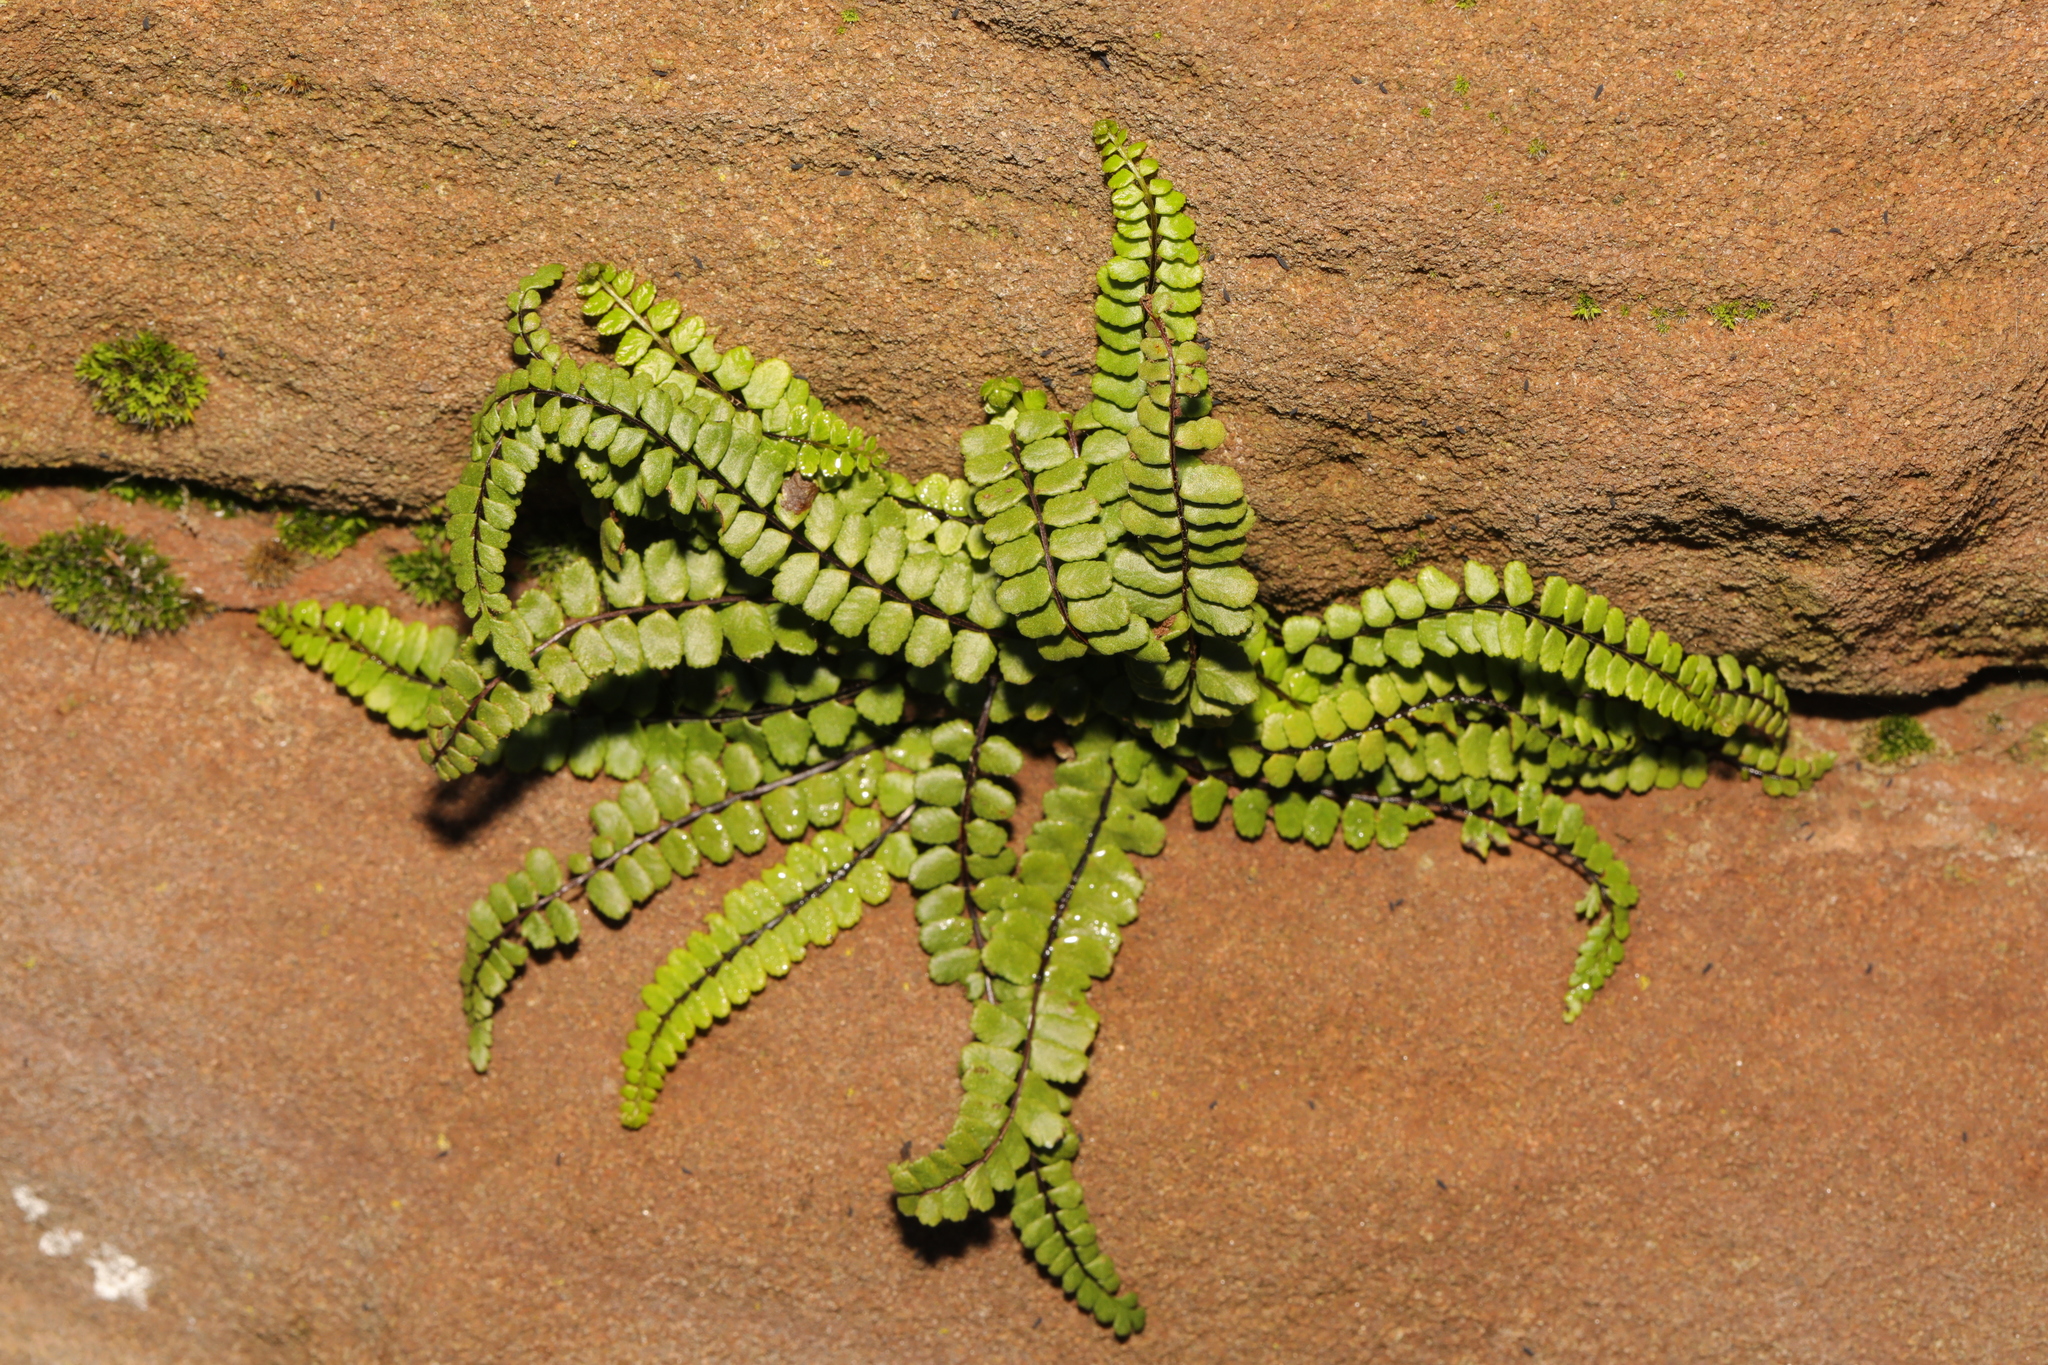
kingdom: Plantae
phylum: Tracheophyta
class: Polypodiopsida
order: Polypodiales
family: Aspleniaceae
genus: Asplenium
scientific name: Asplenium trichomanes
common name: Maidenhair spleenwort
